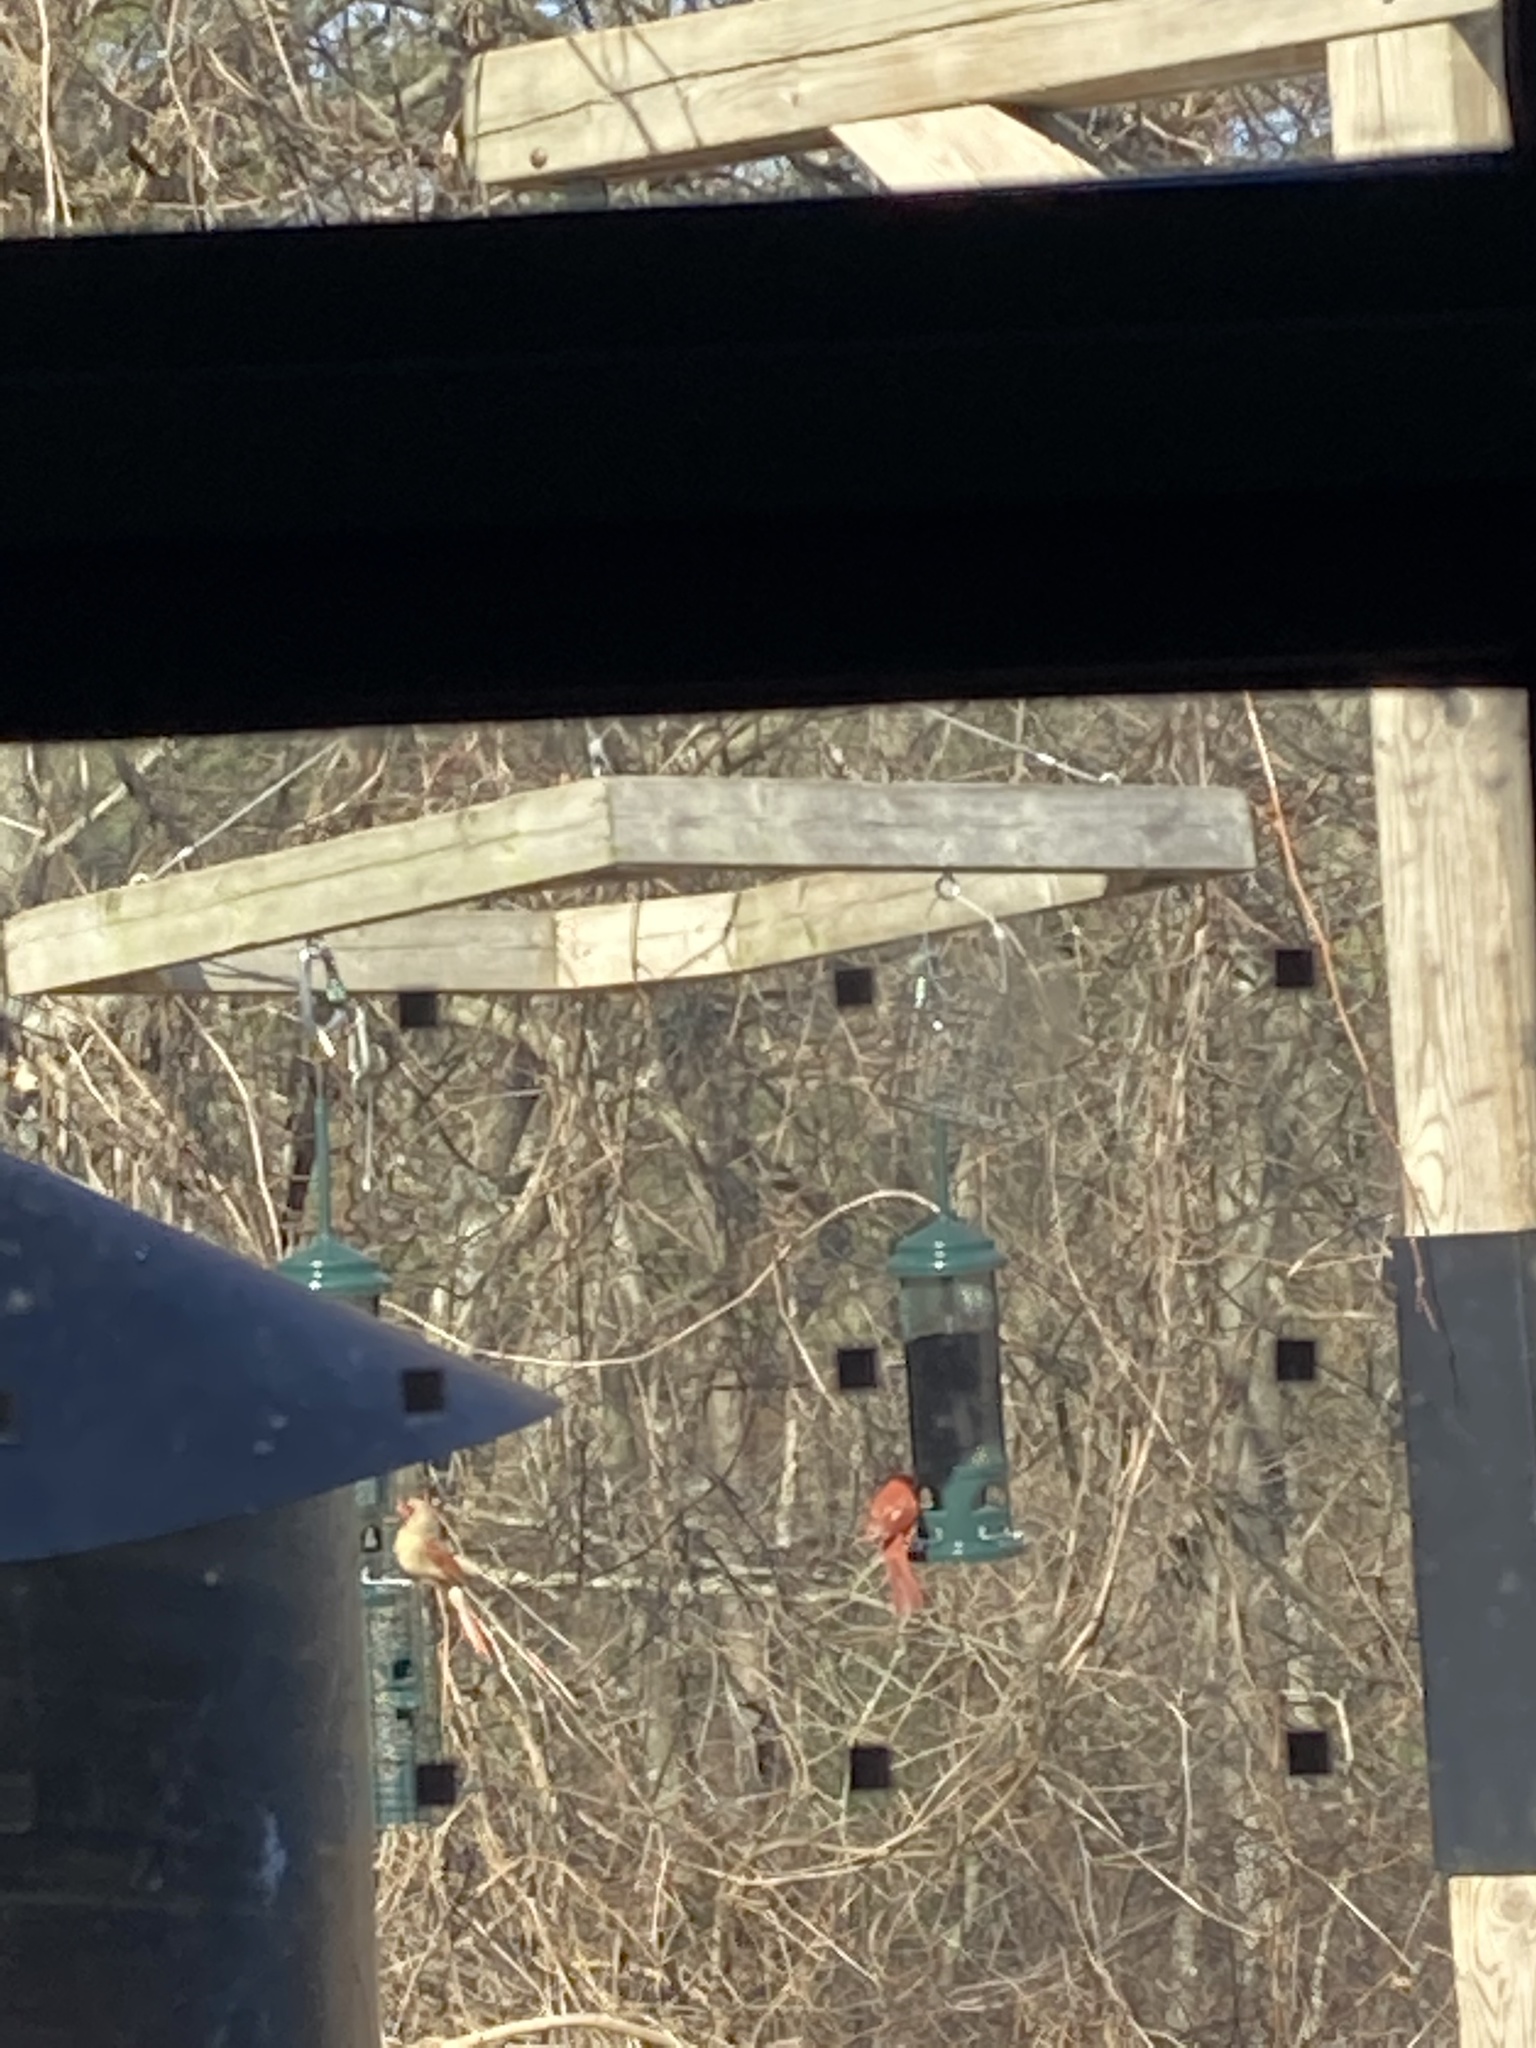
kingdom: Animalia
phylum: Chordata
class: Aves
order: Passeriformes
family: Cardinalidae
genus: Cardinalis
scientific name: Cardinalis cardinalis
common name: Northern cardinal
